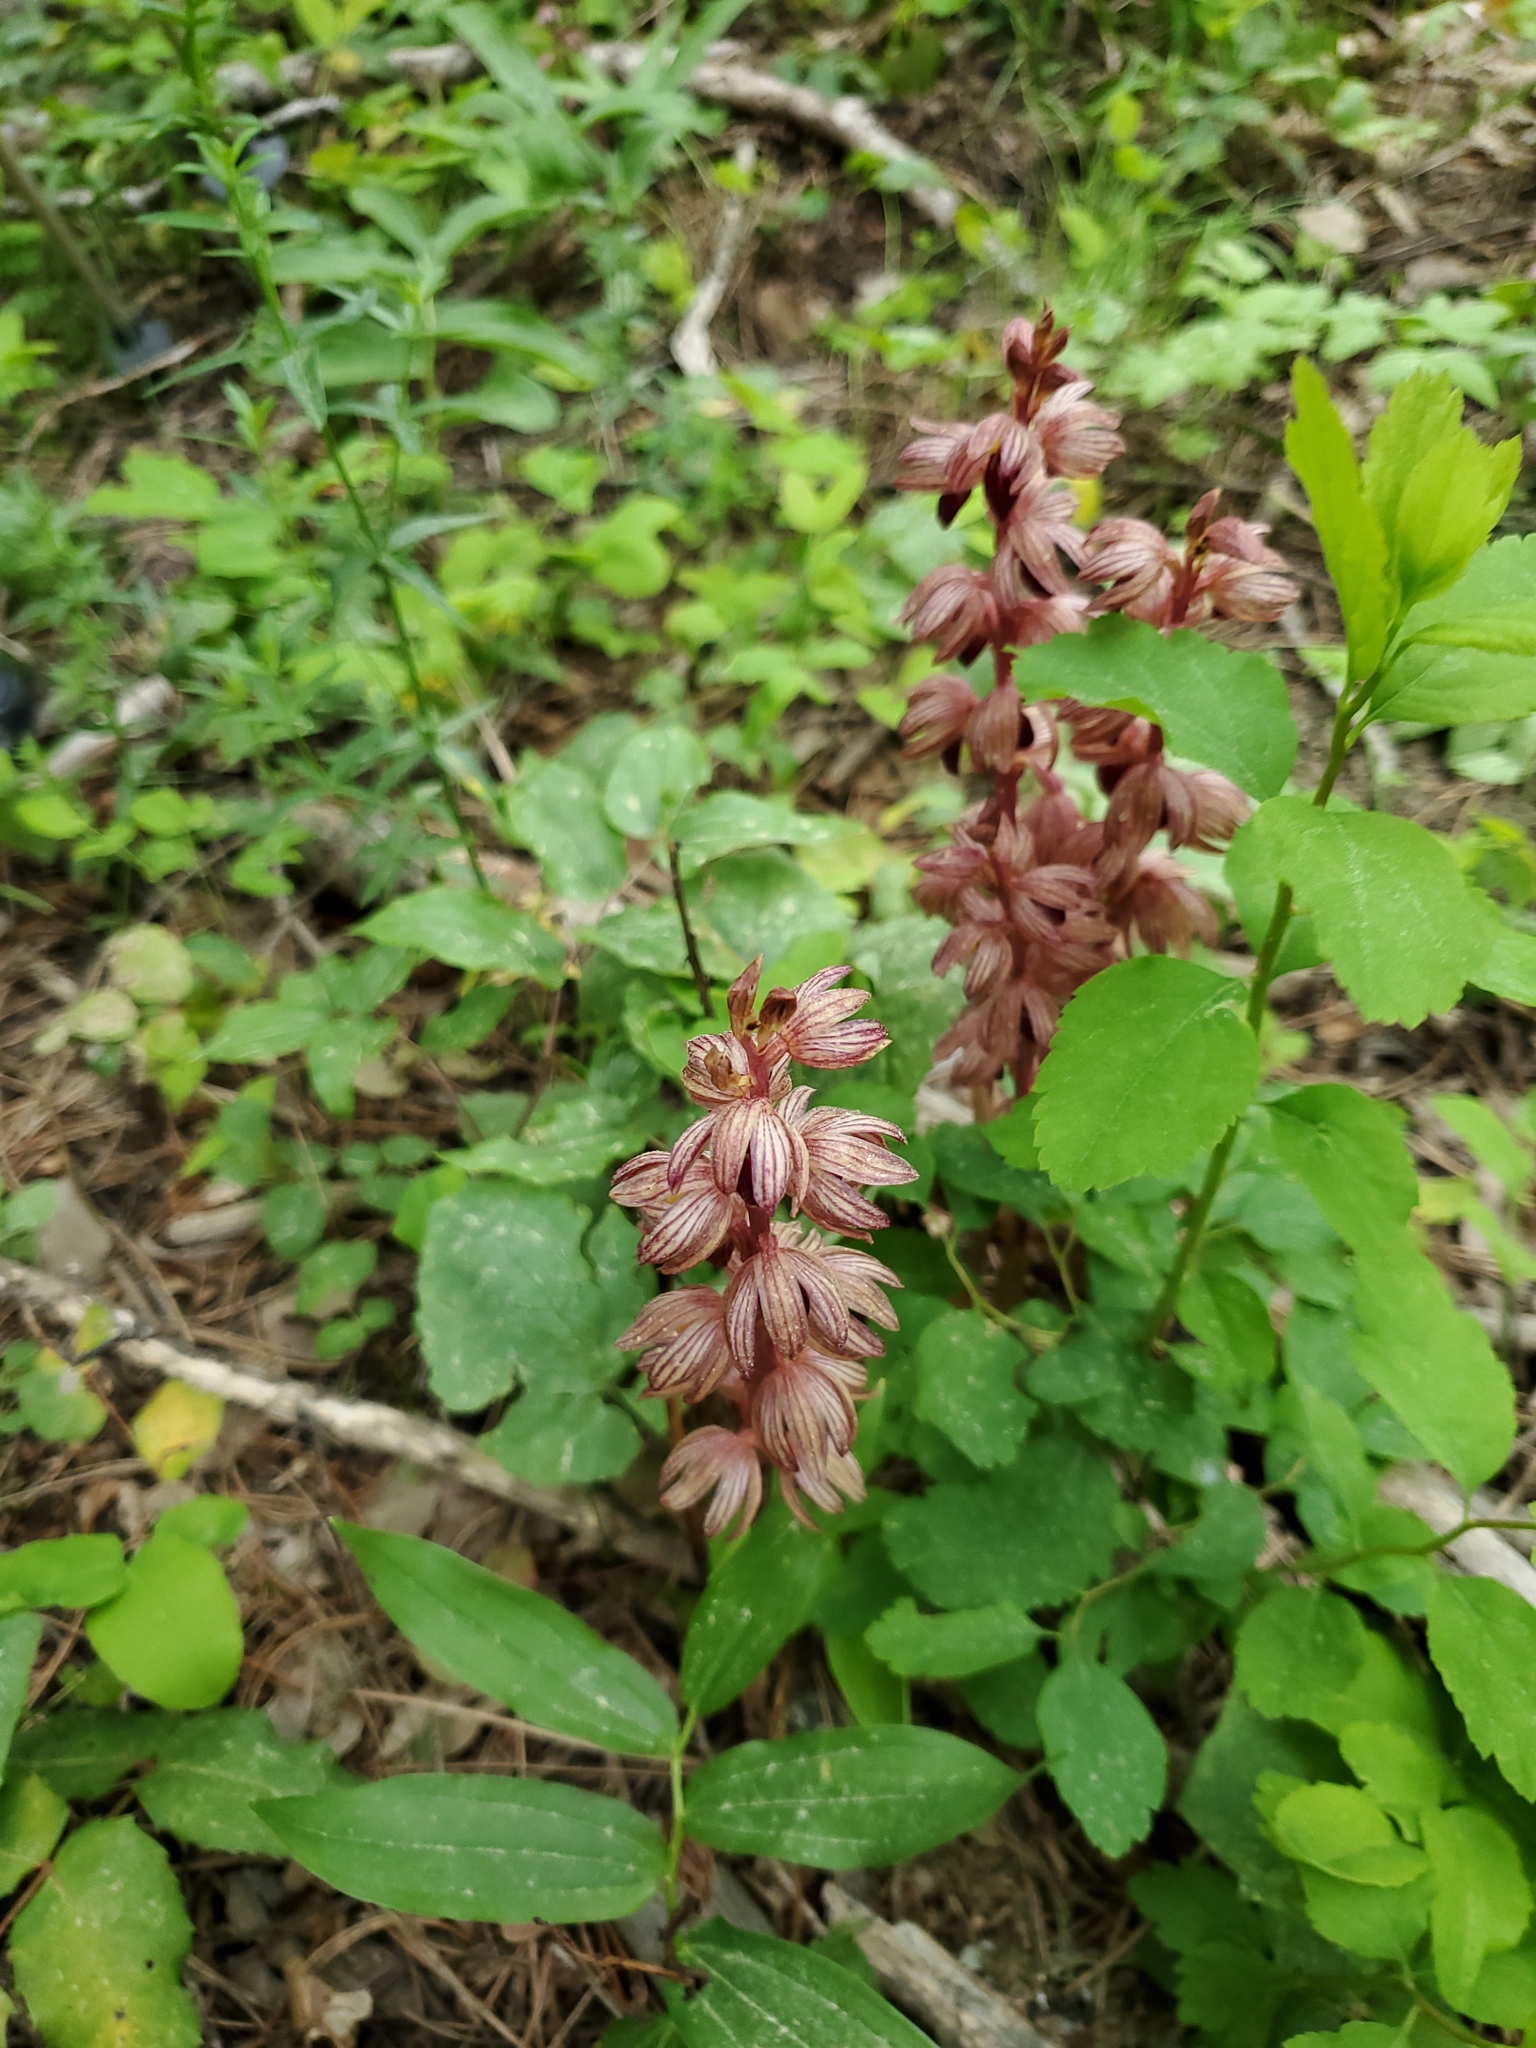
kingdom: Plantae
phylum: Tracheophyta
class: Liliopsida
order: Asparagales
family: Orchidaceae
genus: Corallorhiza
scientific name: Corallorhiza striata
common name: Hooded coralroot
